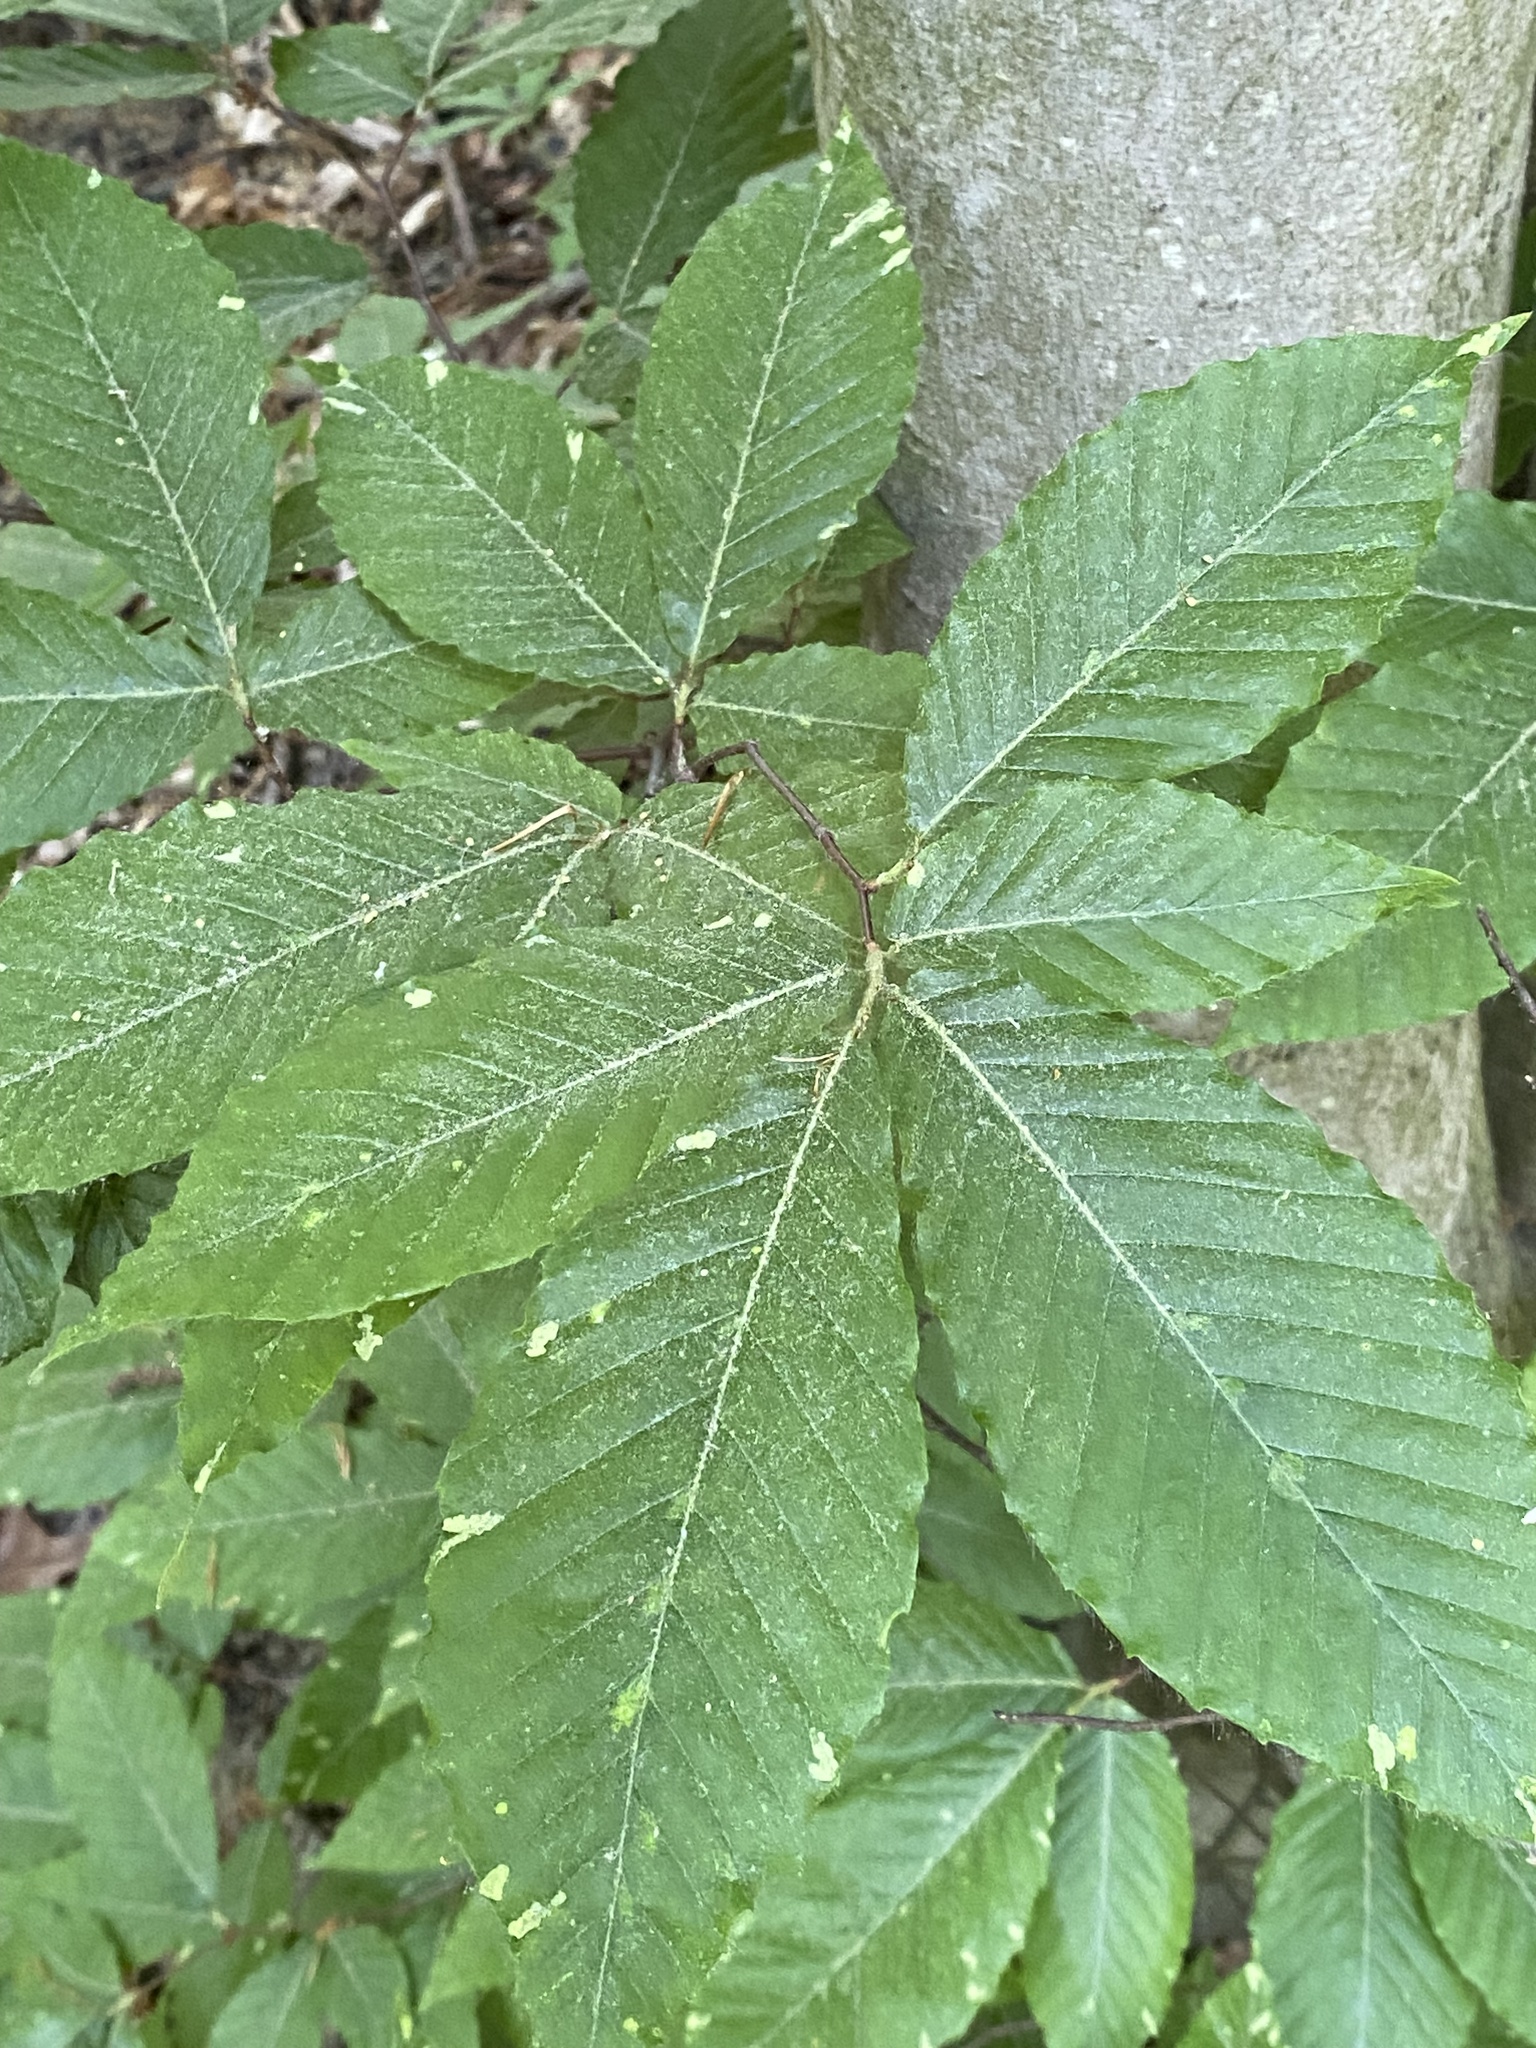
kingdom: Plantae
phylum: Tracheophyta
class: Magnoliopsida
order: Fagales
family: Fagaceae
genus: Fagus
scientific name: Fagus grandifolia
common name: American beech
